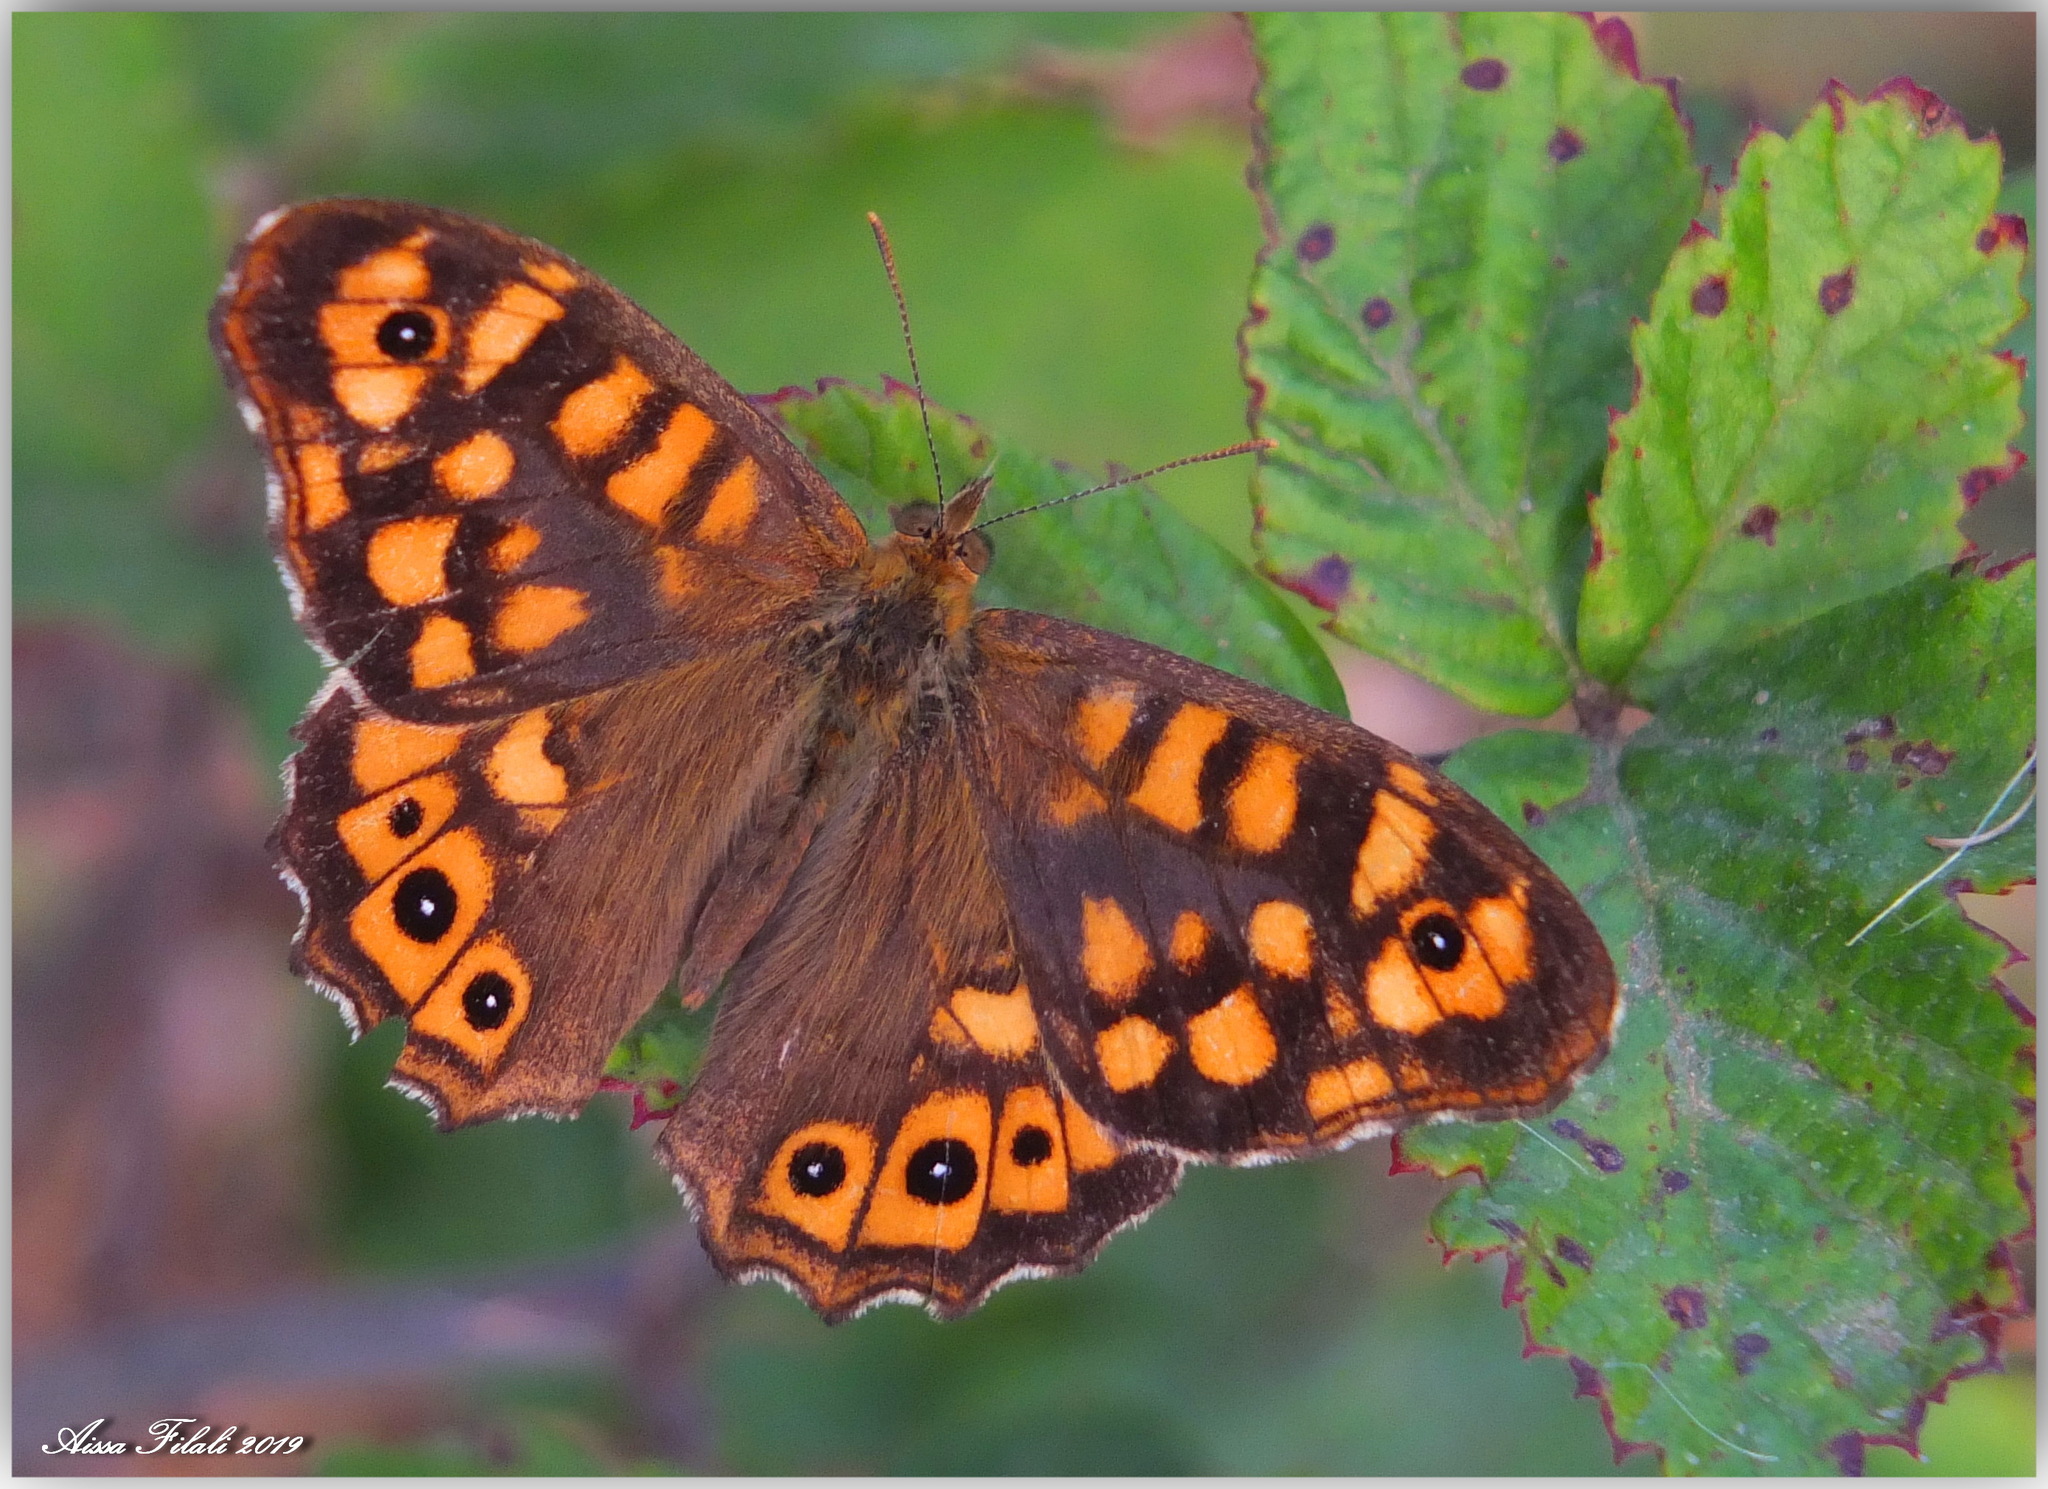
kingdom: Animalia
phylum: Arthropoda
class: Insecta
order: Lepidoptera
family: Nymphalidae
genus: Pararge
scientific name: Pararge aegeria
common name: Speckled wood
